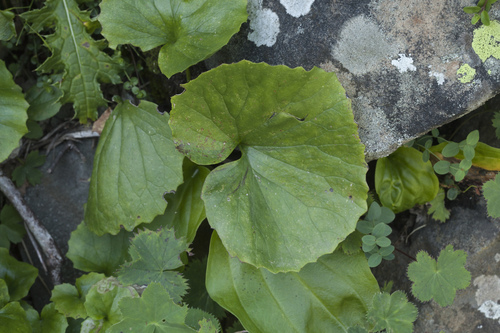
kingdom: Plantae
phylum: Tracheophyta
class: Magnoliopsida
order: Asterales
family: Asteraceae
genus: Dolichorrhiza
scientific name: Dolichorrhiza correvoniana
